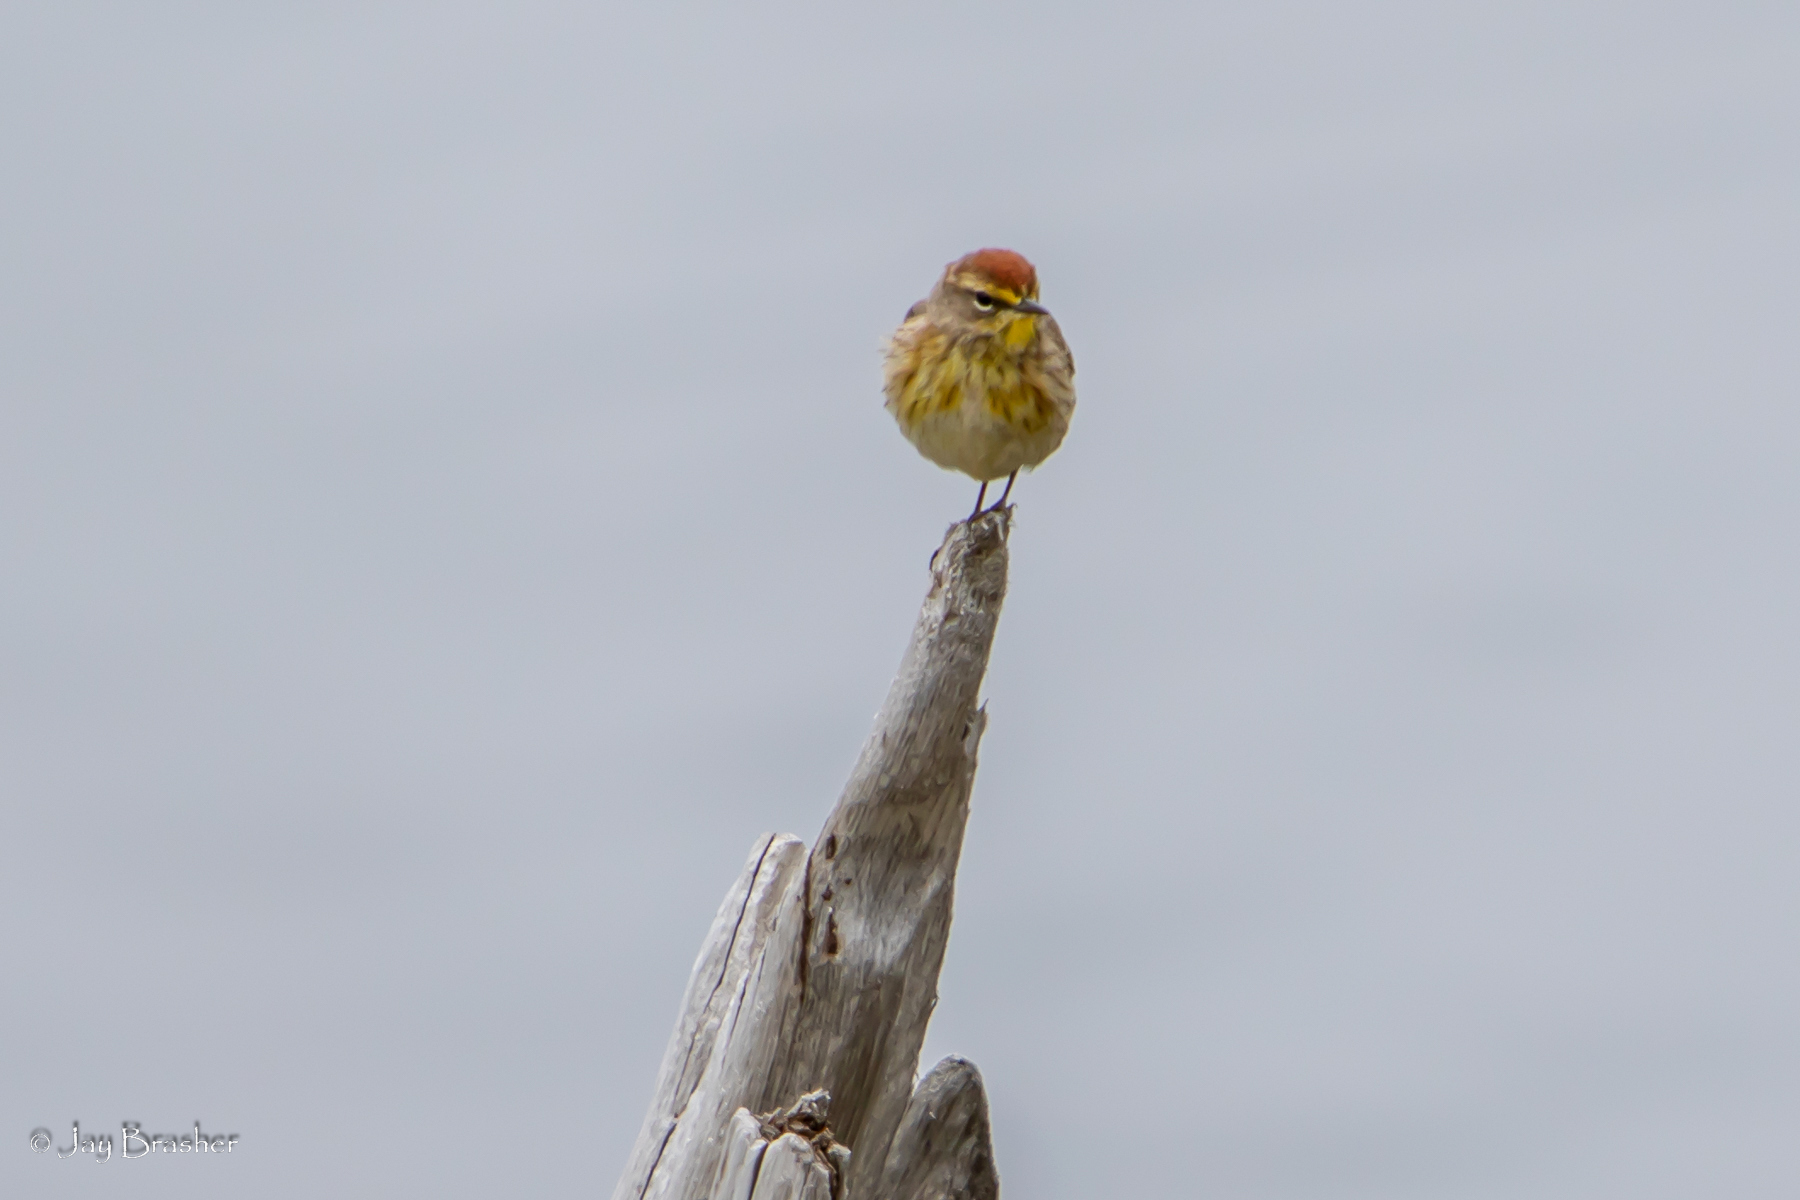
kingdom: Animalia
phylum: Chordata
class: Aves
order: Passeriformes
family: Parulidae
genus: Setophaga
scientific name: Setophaga palmarum
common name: Palm warbler
